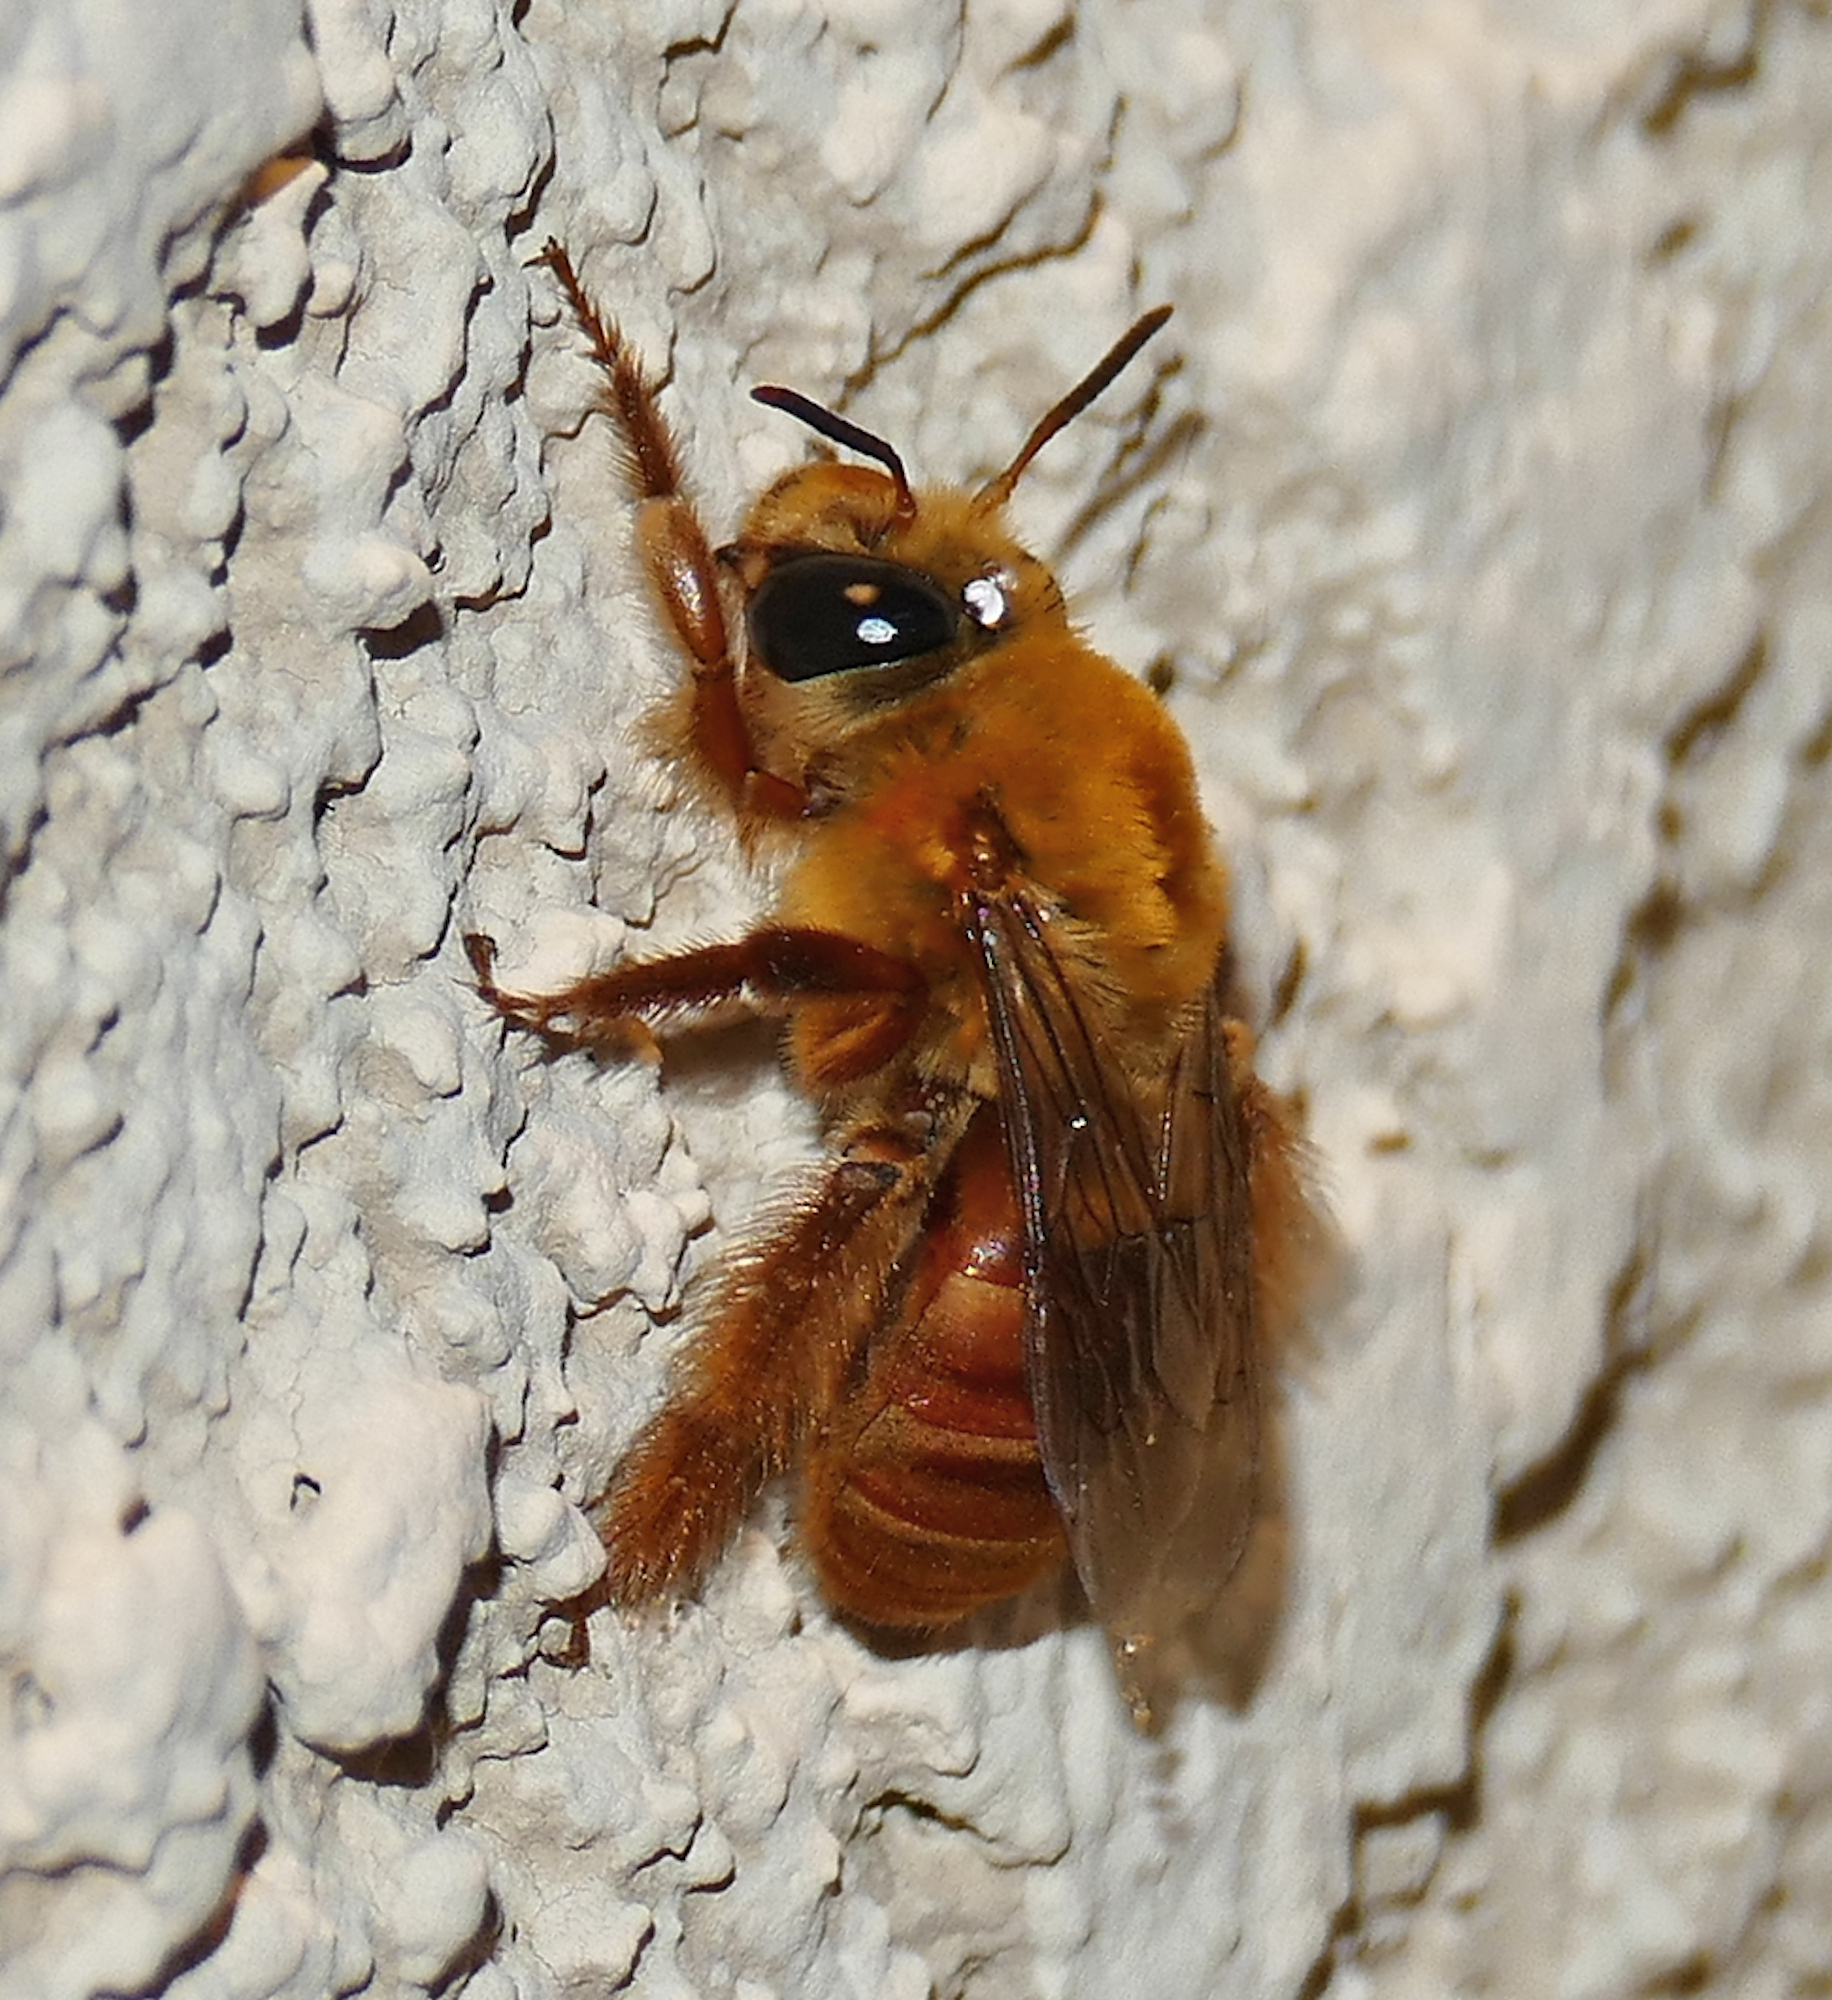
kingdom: Animalia
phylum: Arthropoda
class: Insecta
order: Hymenoptera
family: Apidae
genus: Xenoglossa
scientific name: Xenoglossa angustior
